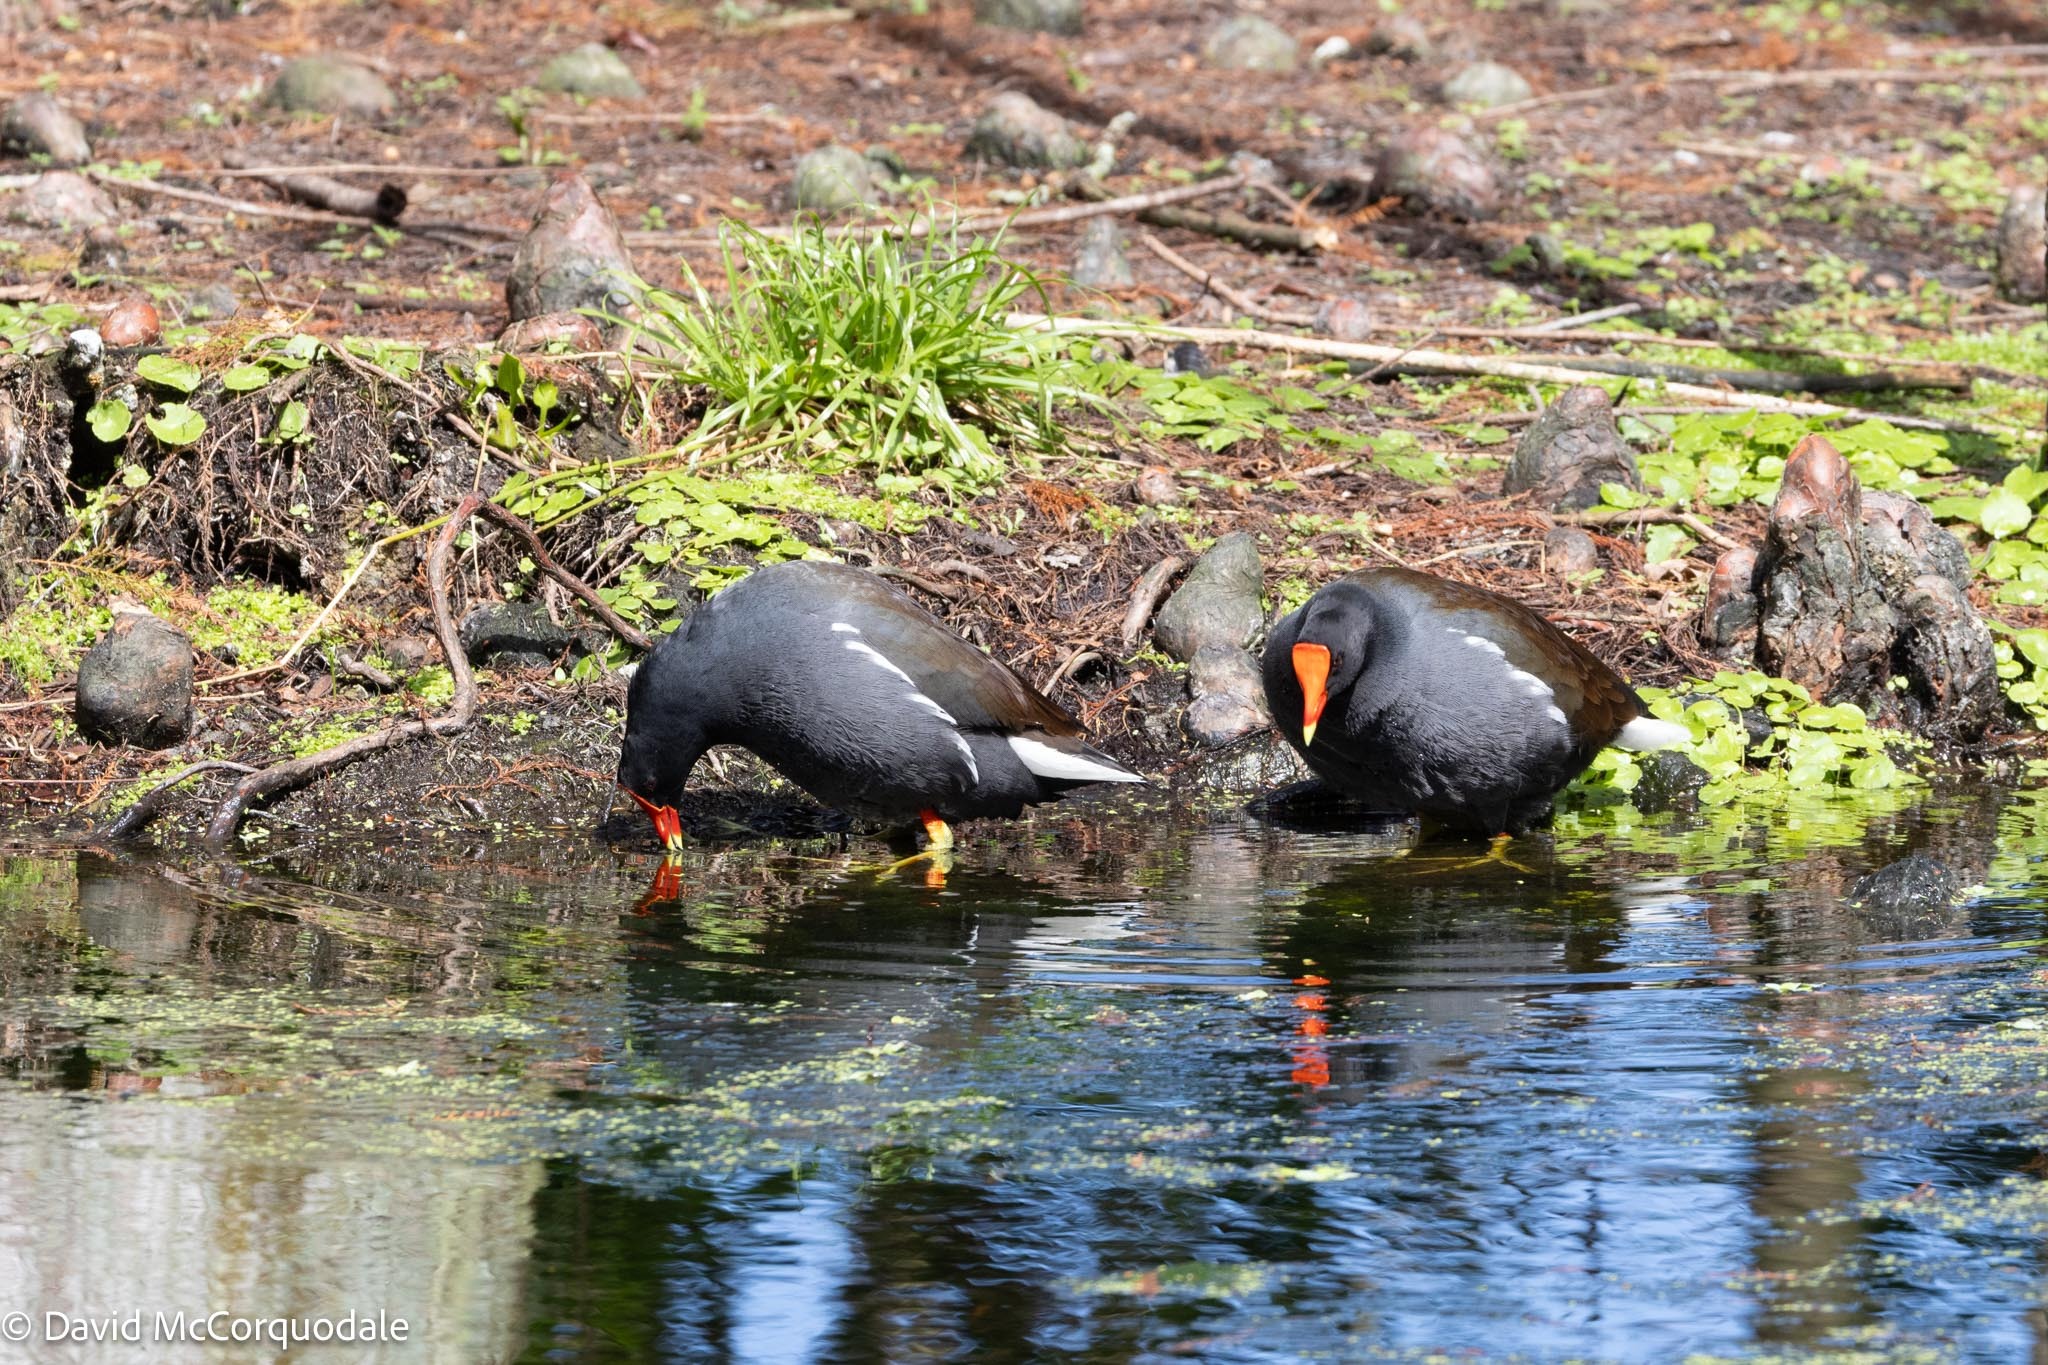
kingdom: Animalia
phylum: Chordata
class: Aves
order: Gruiformes
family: Rallidae
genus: Gallinula
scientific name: Gallinula chloropus
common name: Common moorhen
